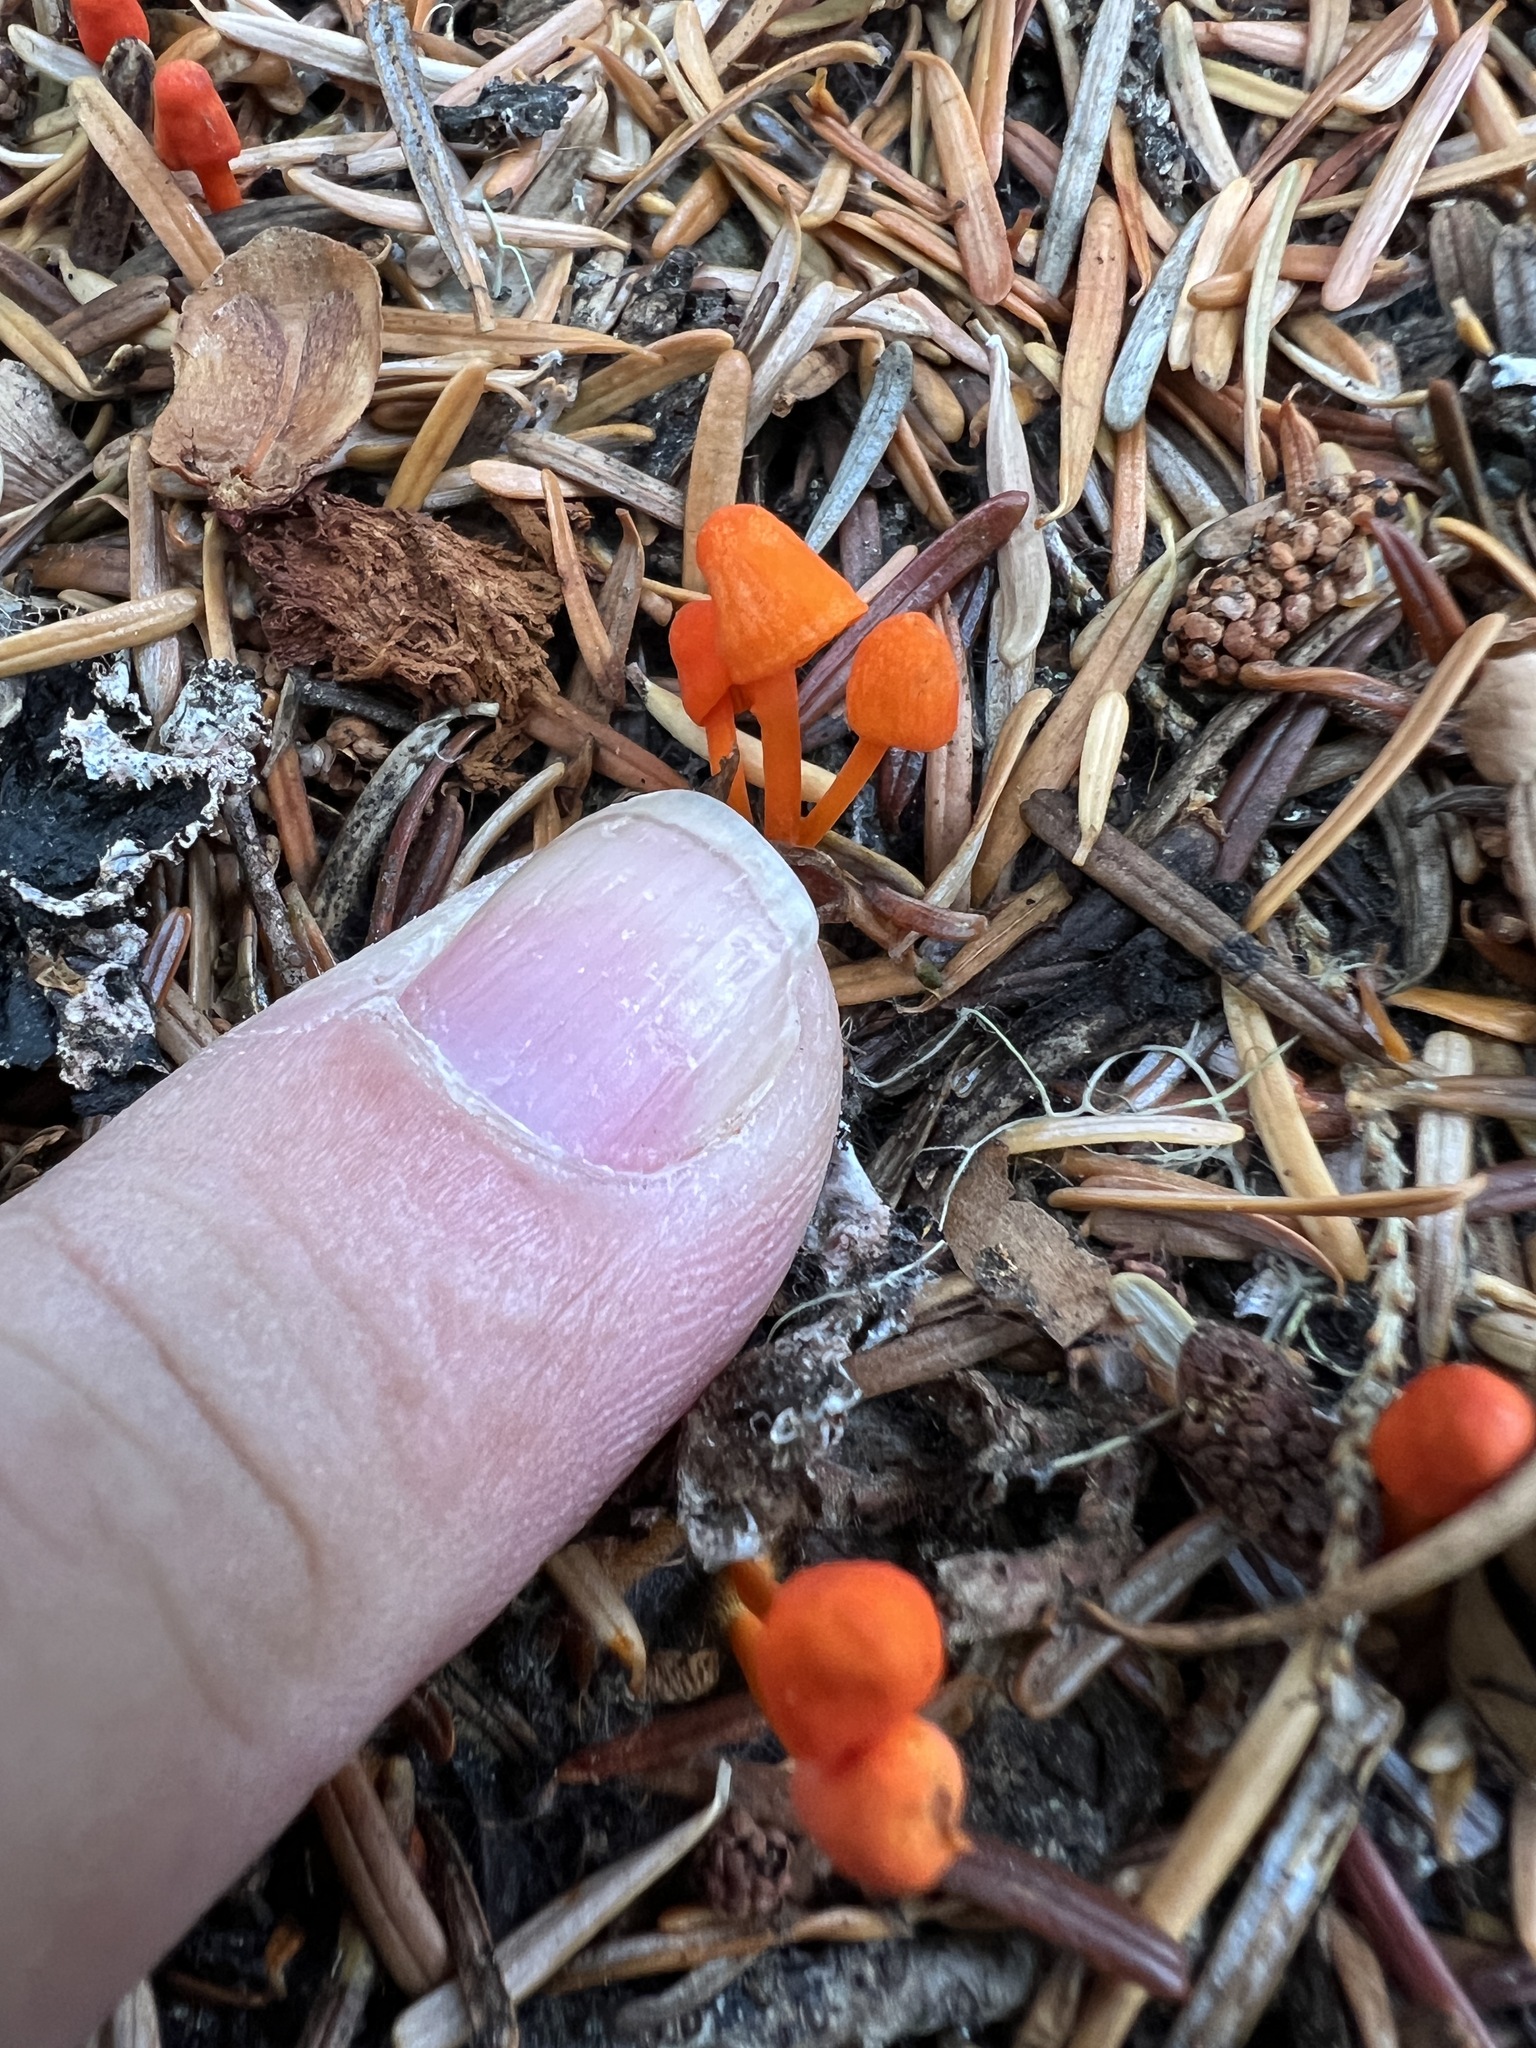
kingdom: Fungi
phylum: Basidiomycota
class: Agaricomycetes
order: Agaricales
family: Mycenaceae
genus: Mycena
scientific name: Mycena strobilinoidea
